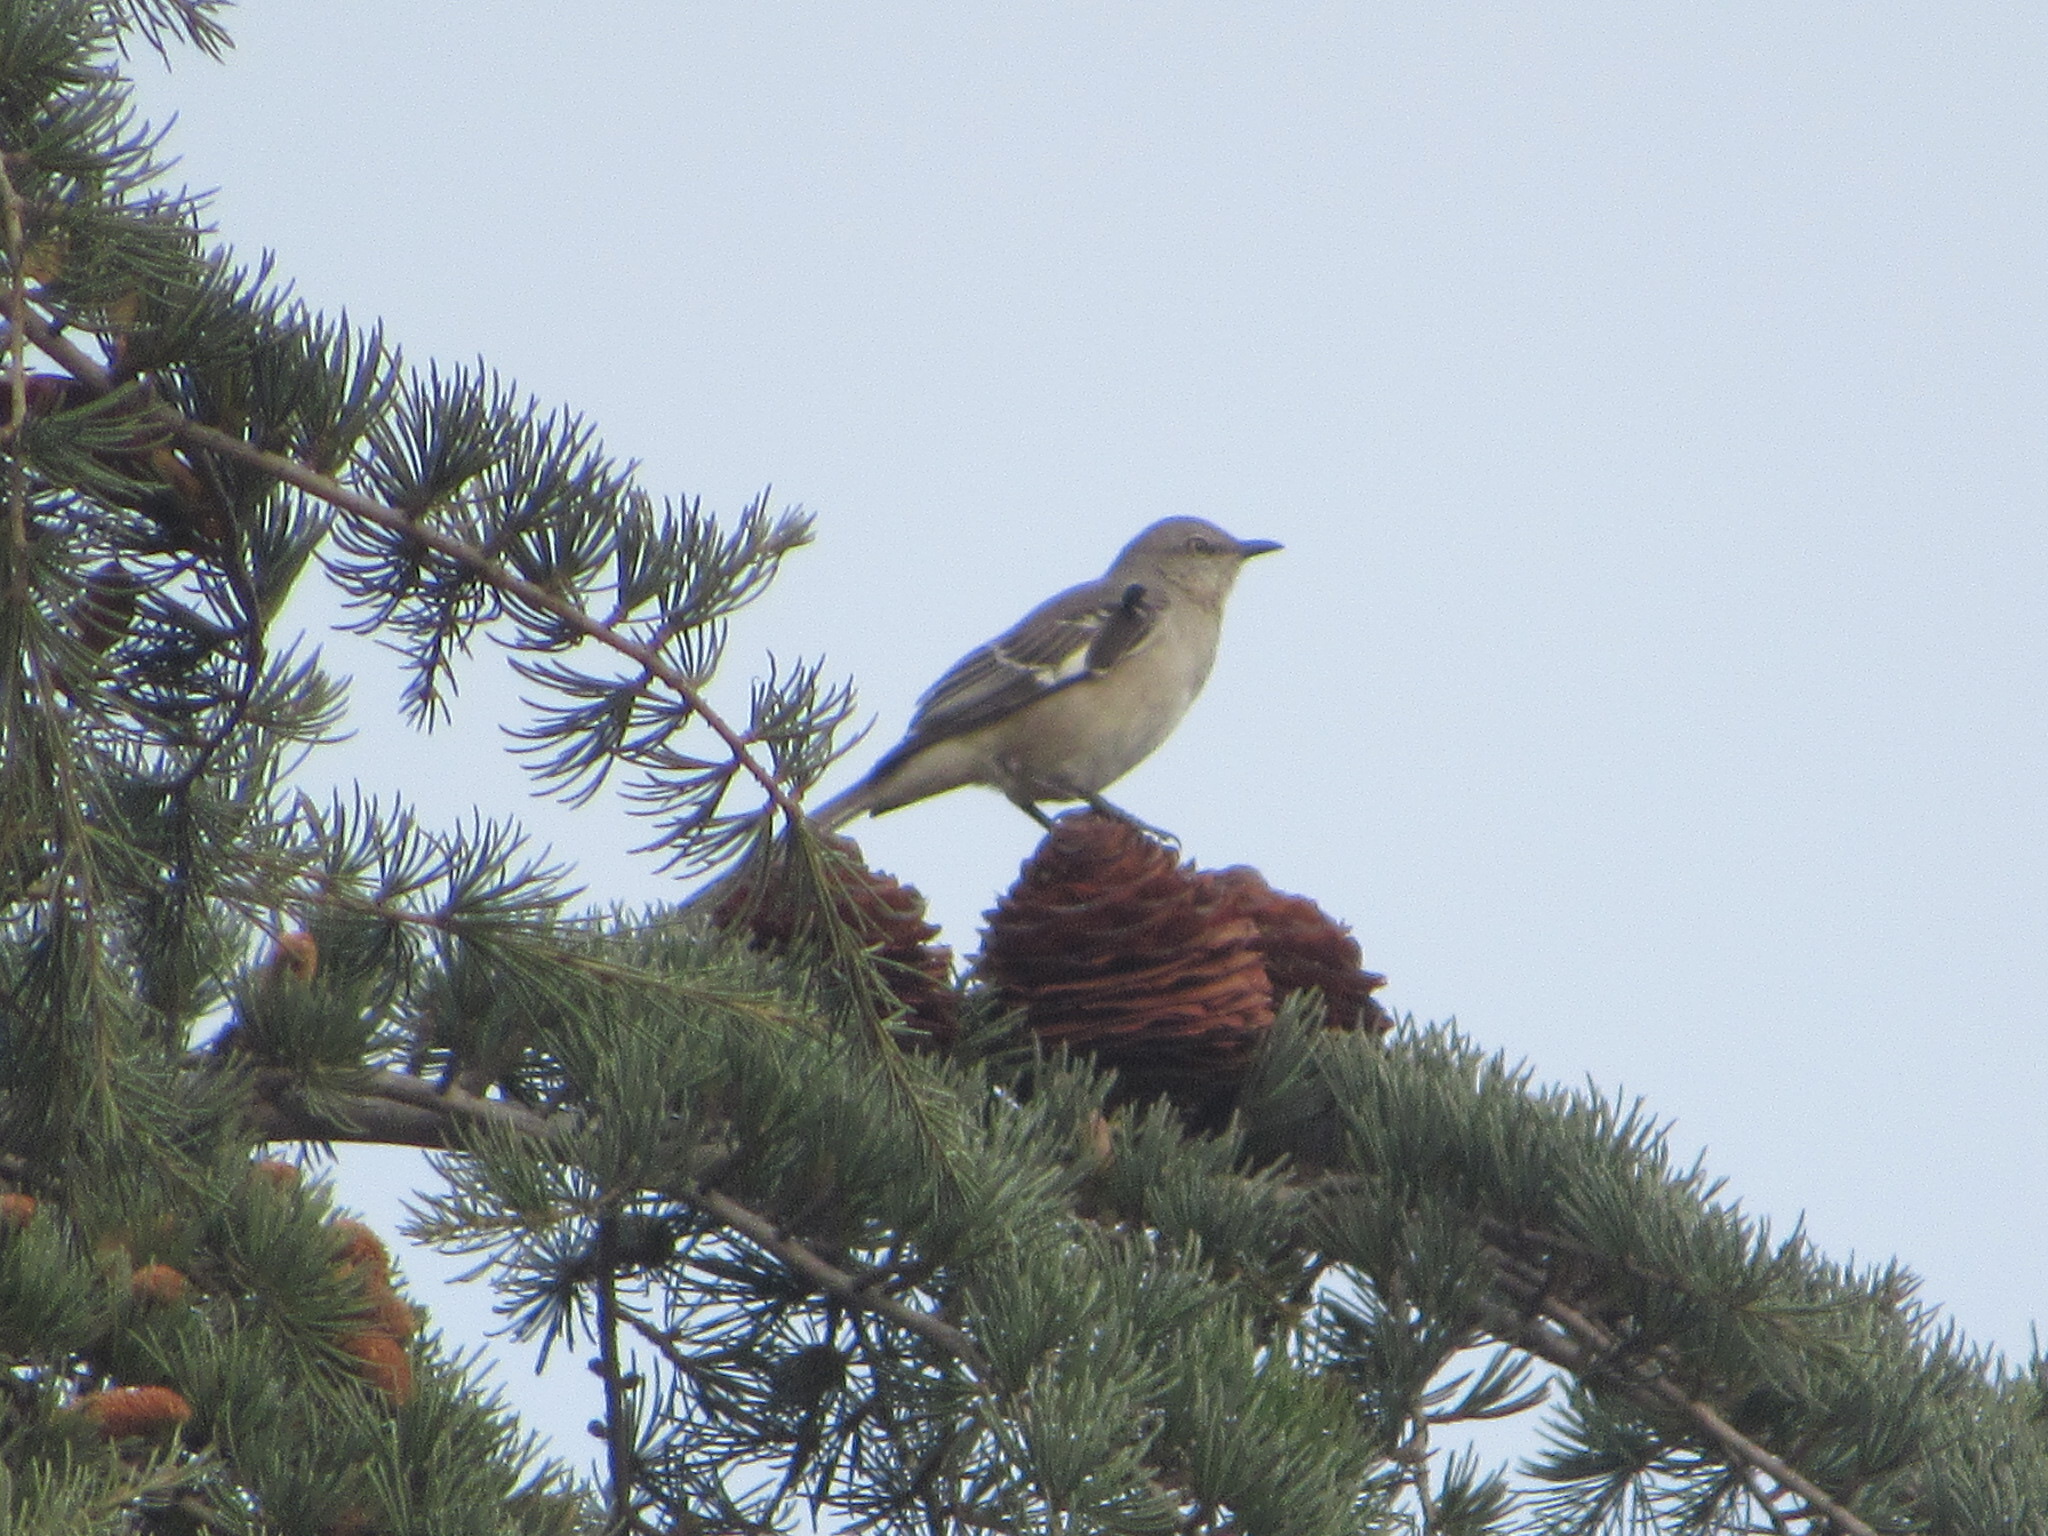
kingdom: Animalia
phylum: Chordata
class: Aves
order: Passeriformes
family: Mimidae
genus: Mimus
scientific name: Mimus polyglottos
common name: Northern mockingbird
